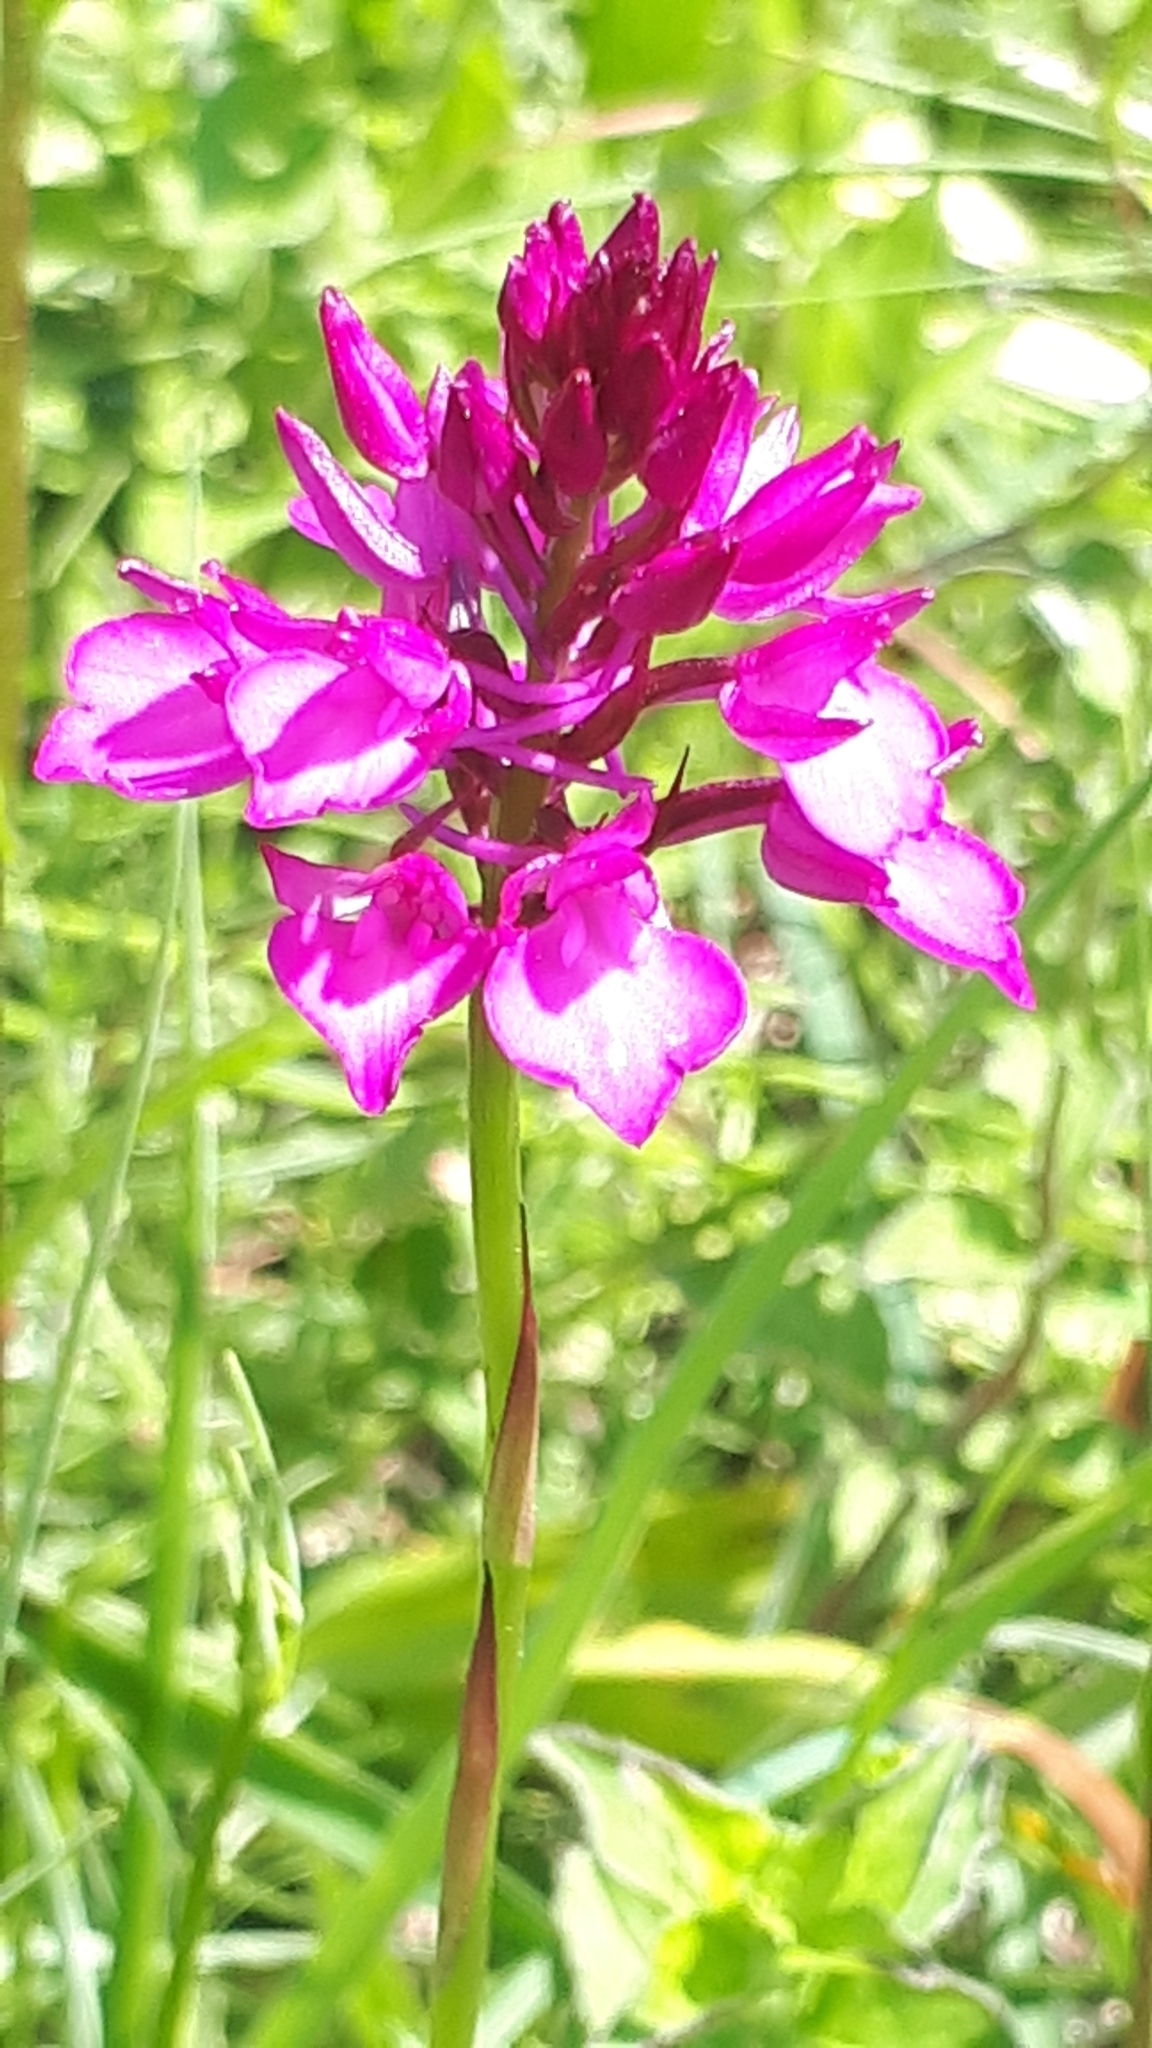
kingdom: Plantae
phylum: Tracheophyta
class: Liliopsida
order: Asparagales
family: Orchidaceae
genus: Anacamptis
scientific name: Anacamptis pyramidalis
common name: Pyramidal orchid
